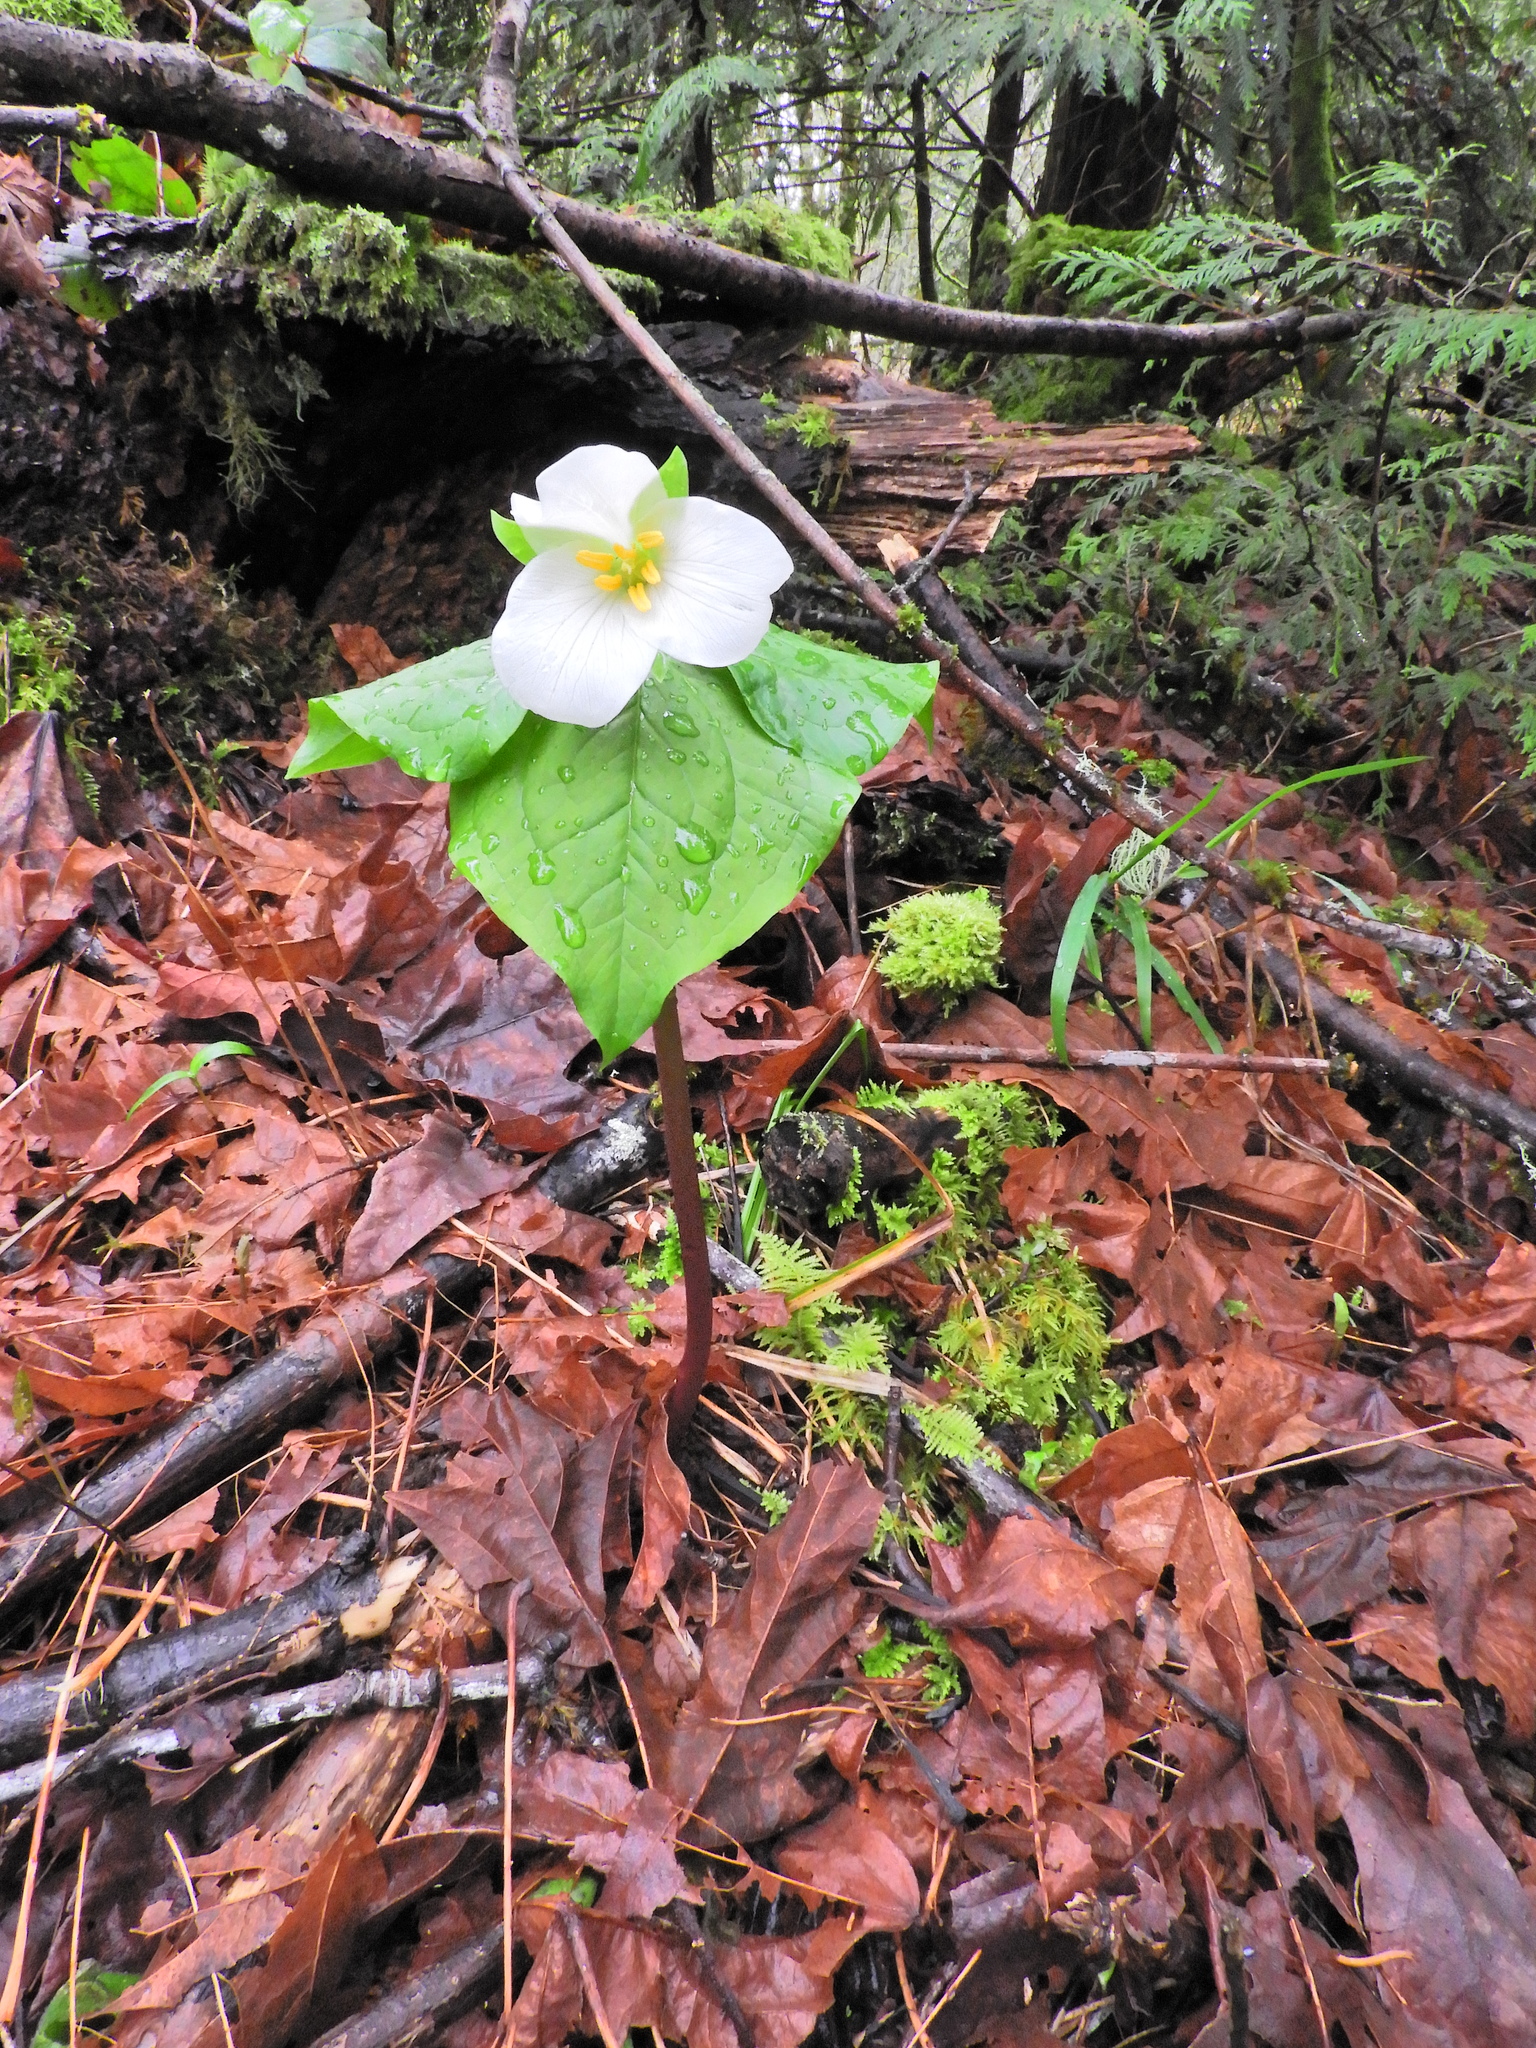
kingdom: Plantae
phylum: Tracheophyta
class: Liliopsida
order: Liliales
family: Melanthiaceae
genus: Trillium
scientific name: Trillium ovatum
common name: Pacific trillium
